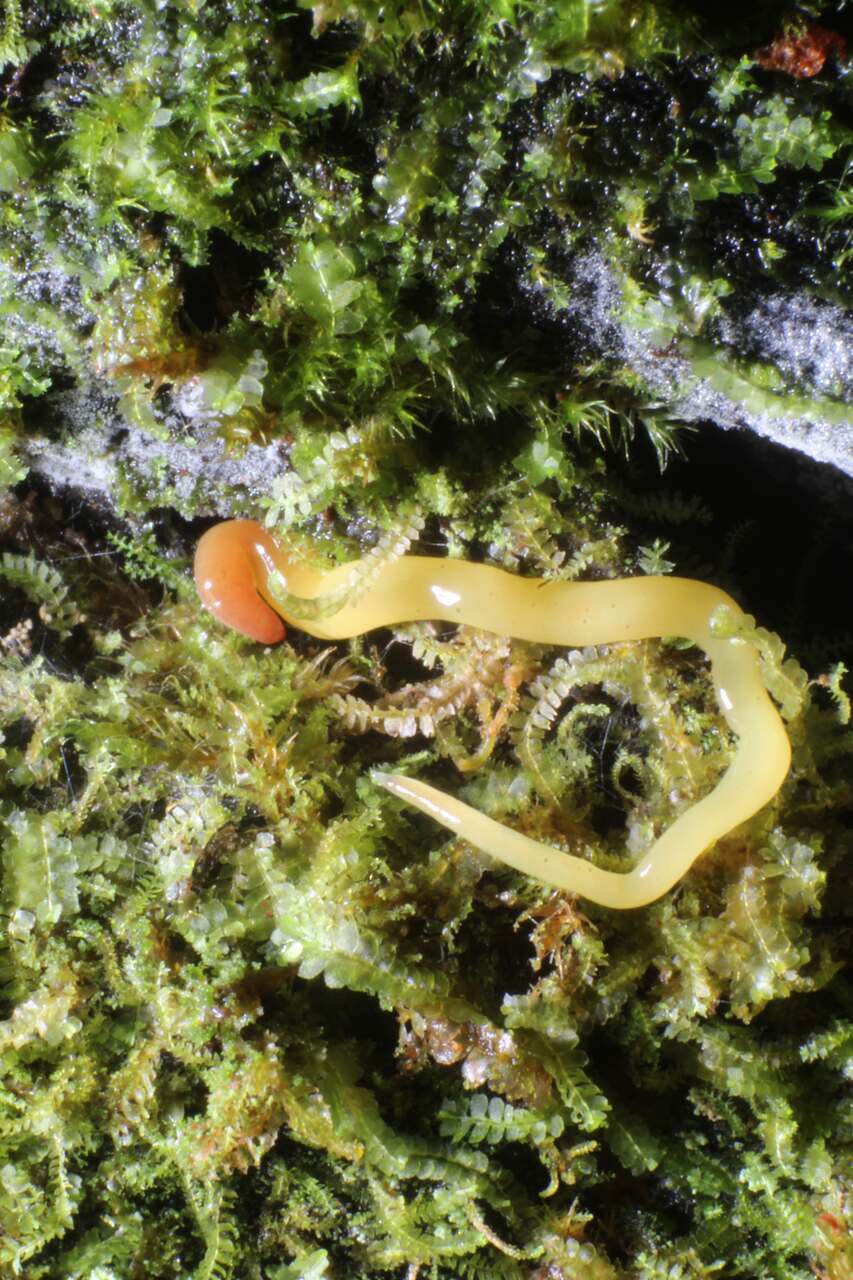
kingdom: Animalia
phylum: Platyhelminthes
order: Tricladida
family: Geoplanidae
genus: Fletchamia
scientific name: Fletchamia sugdeni
